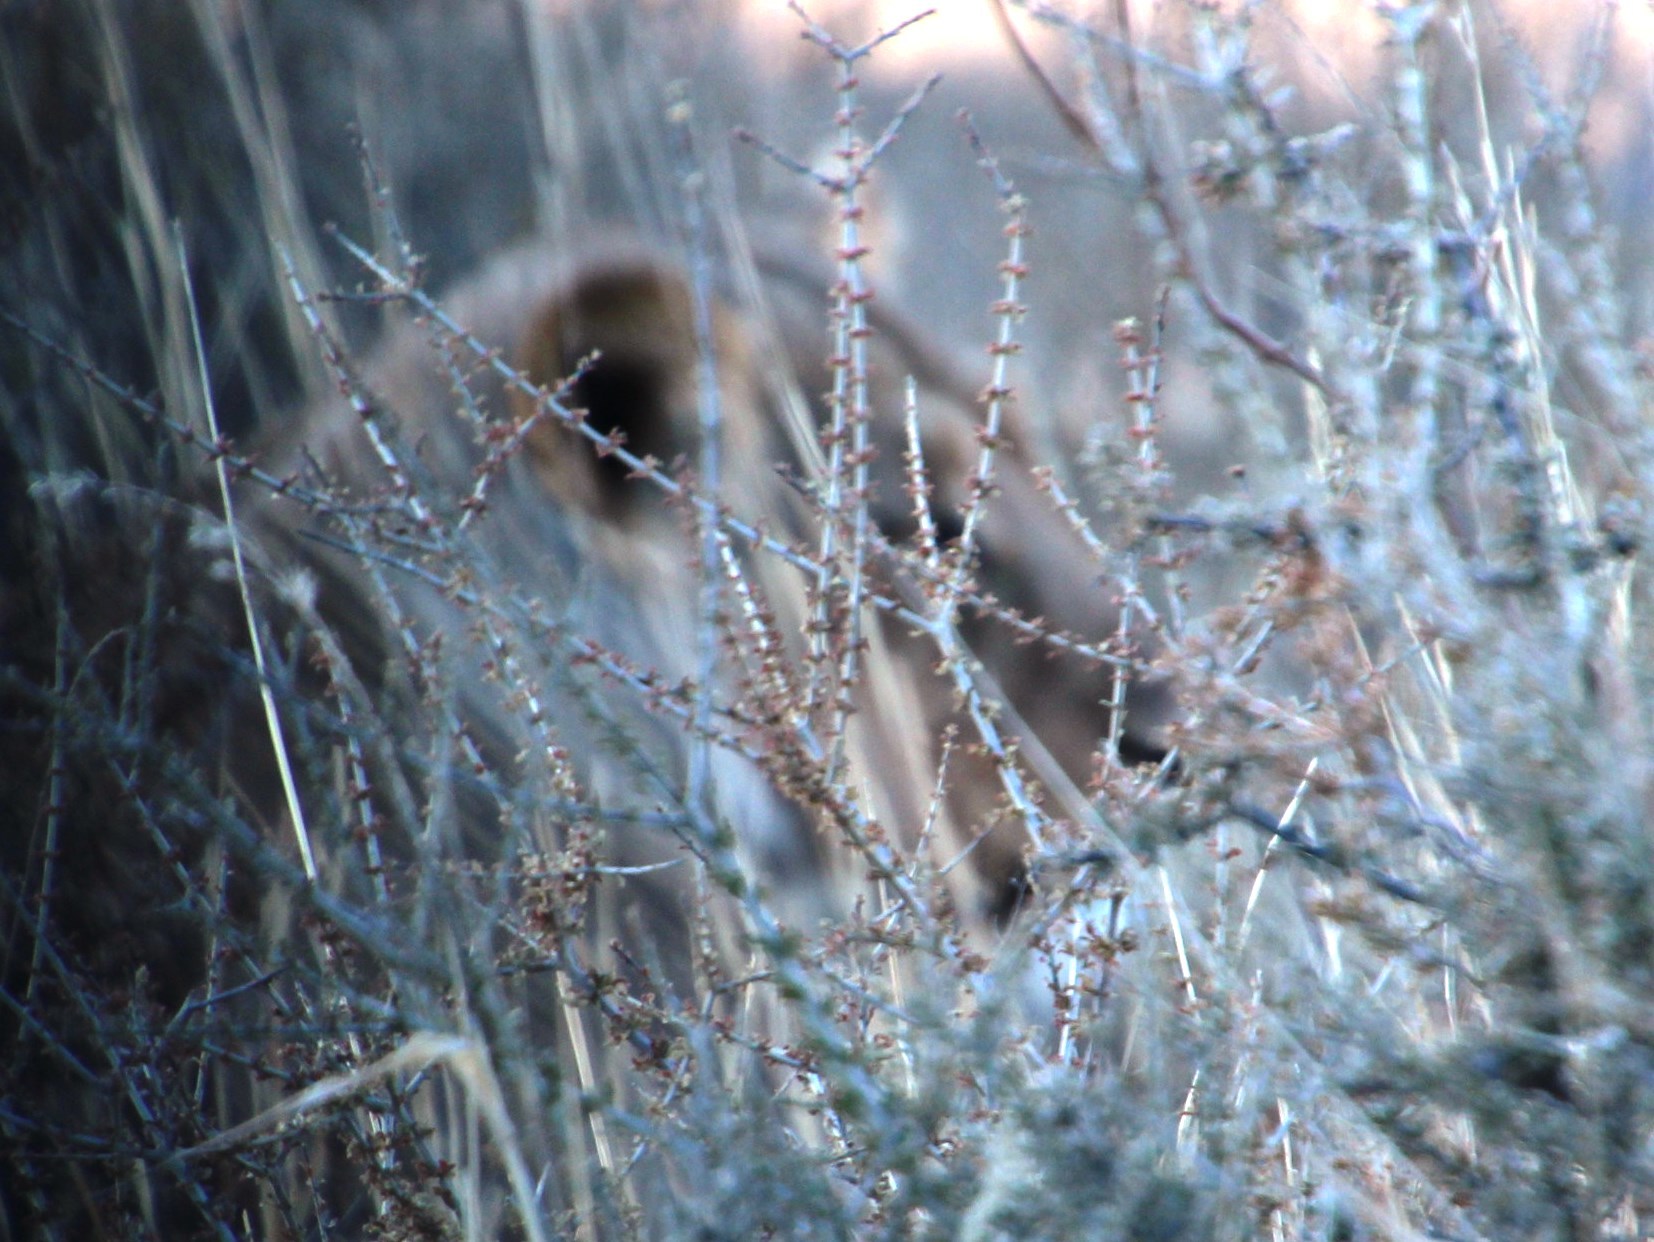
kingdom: Animalia
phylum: Chordata
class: Mammalia
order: Carnivora
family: Felidae
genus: Panthera
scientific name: Panthera leo
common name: Lion
